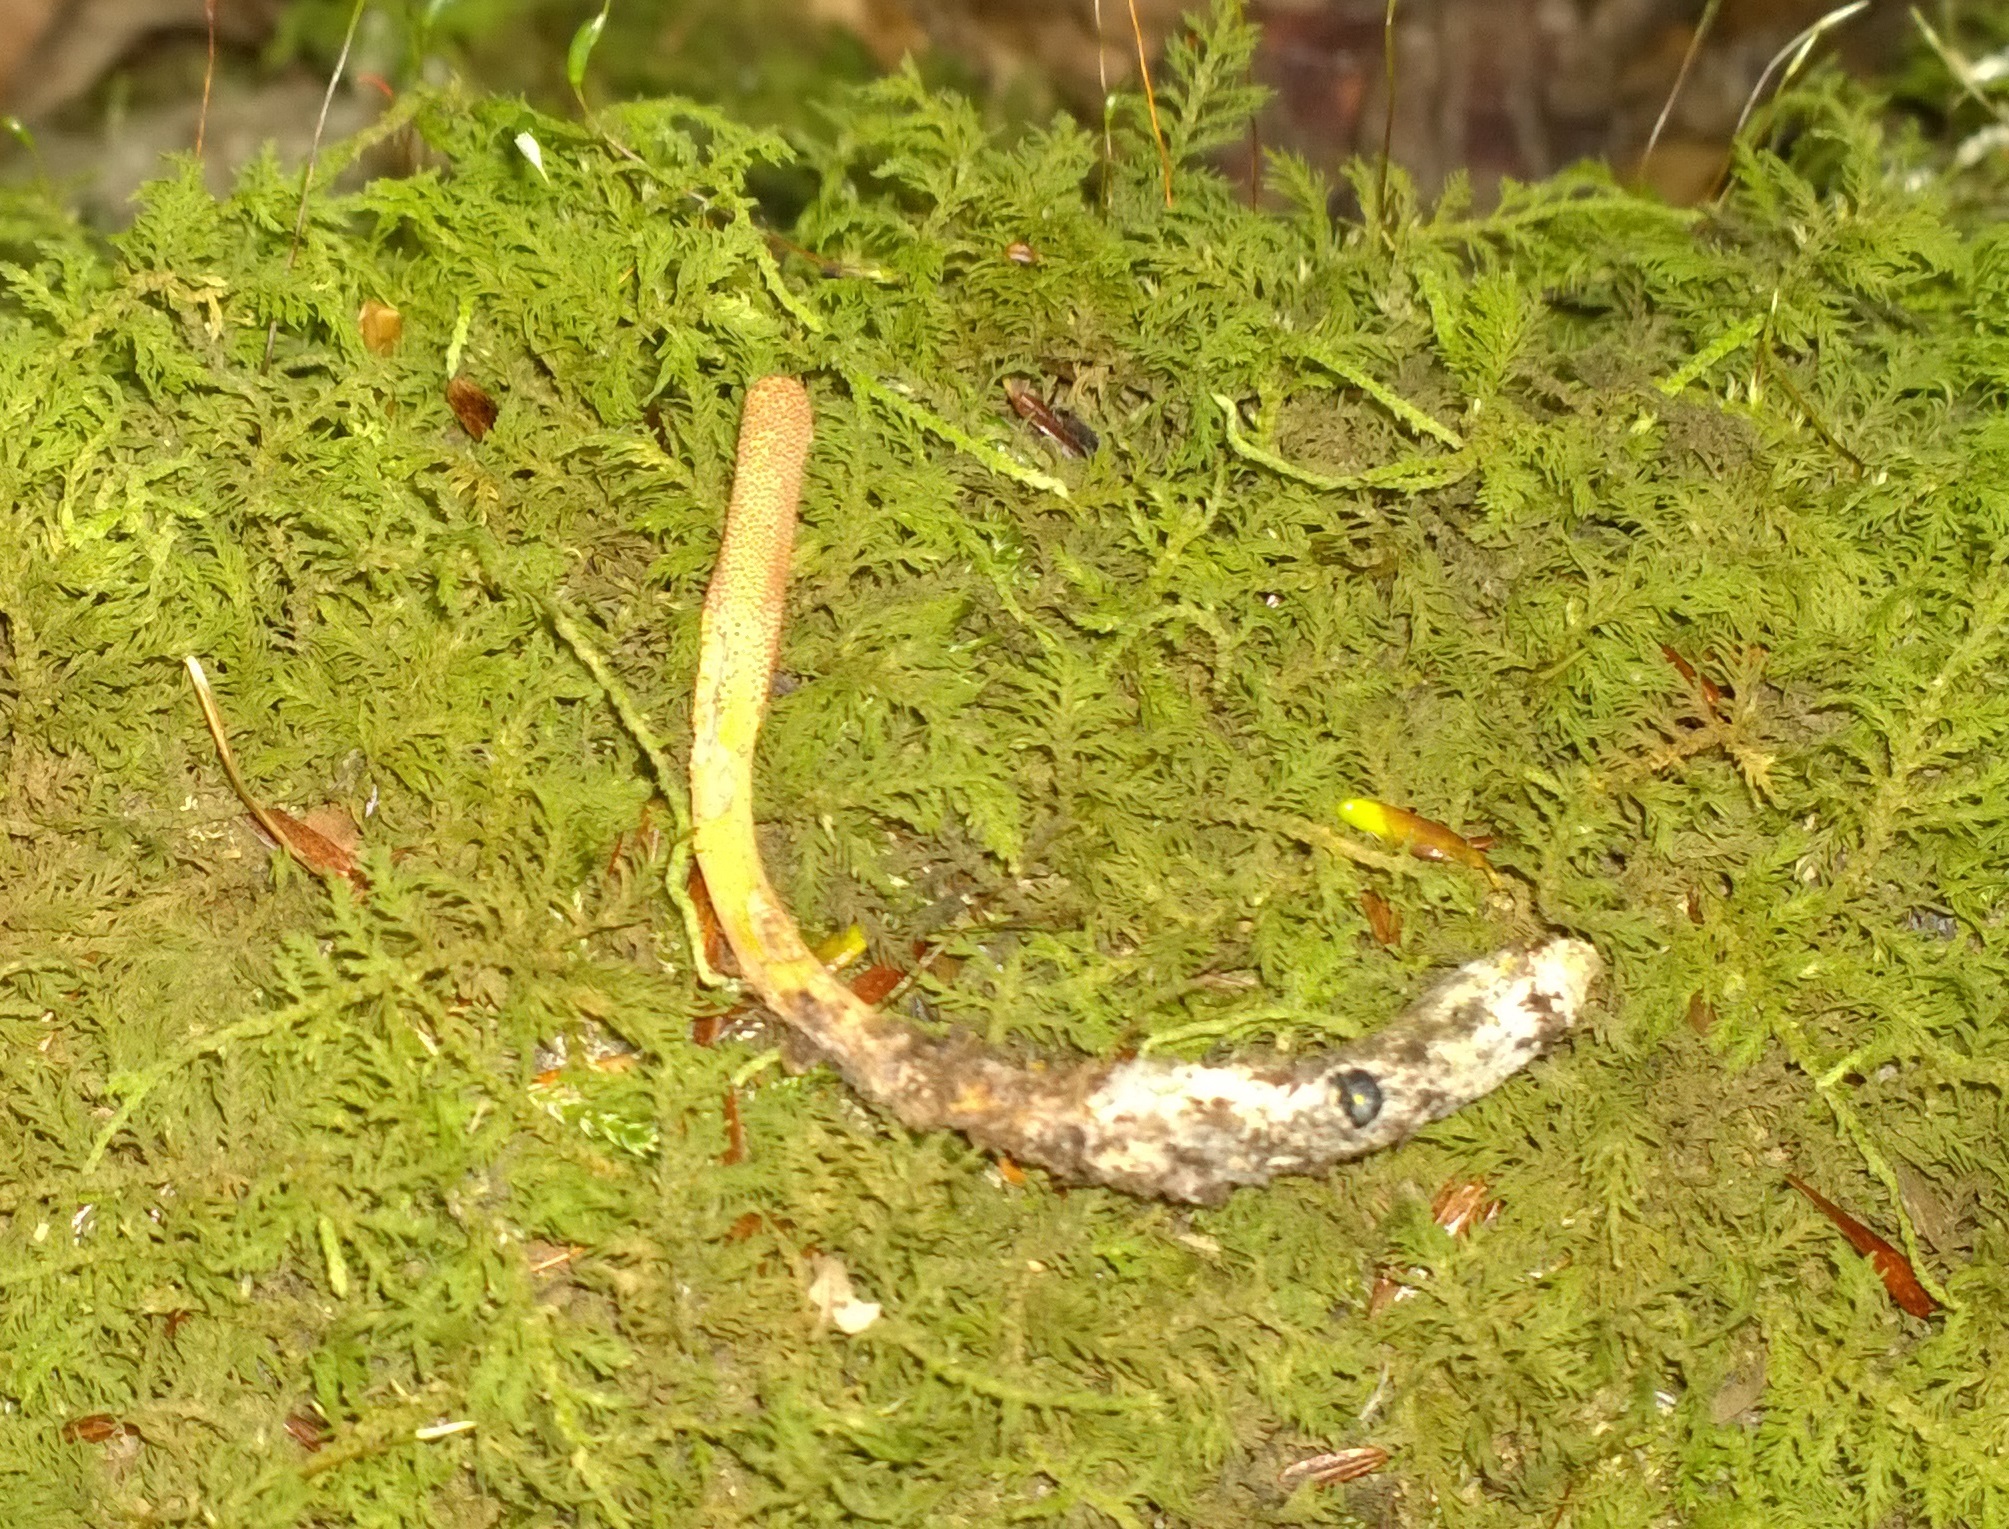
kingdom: Fungi
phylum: Ascomycota
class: Sordariomycetes
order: Hypocreales
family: Cordycipitaceae
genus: Cordyceps
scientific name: Cordyceps militaris
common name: Scarlet caterpillar fungus
